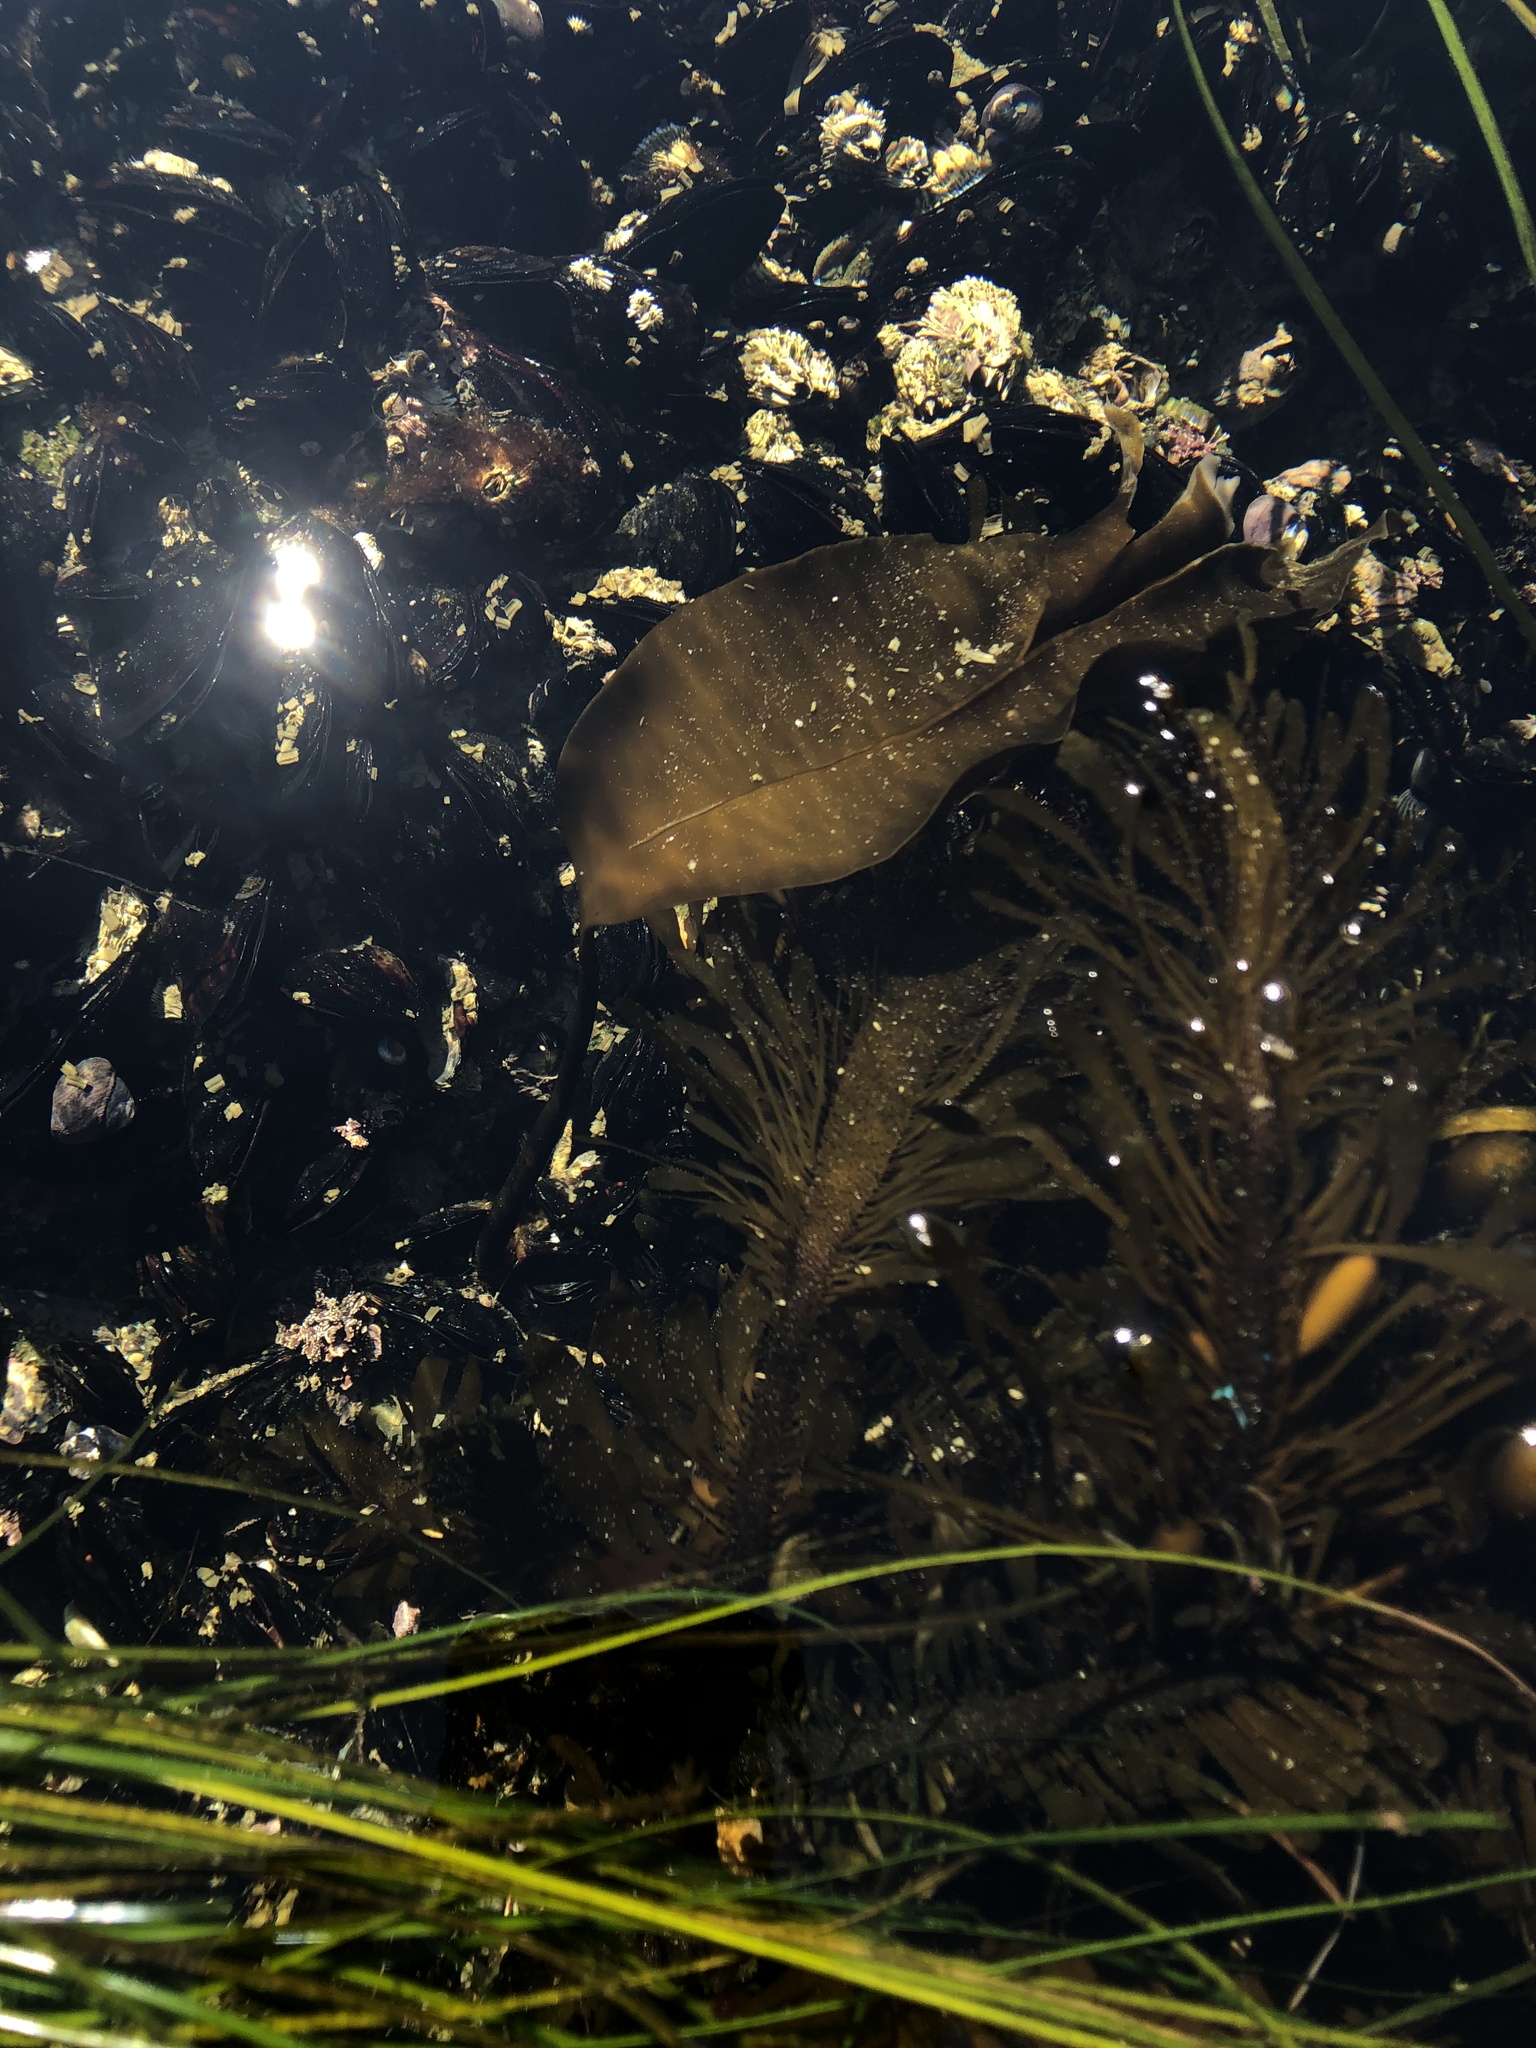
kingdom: Chromista
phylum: Ochrophyta
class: Phaeophyceae
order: Laminariales
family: Laminariaceae
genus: Laminaria
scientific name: Laminaria setchellii
